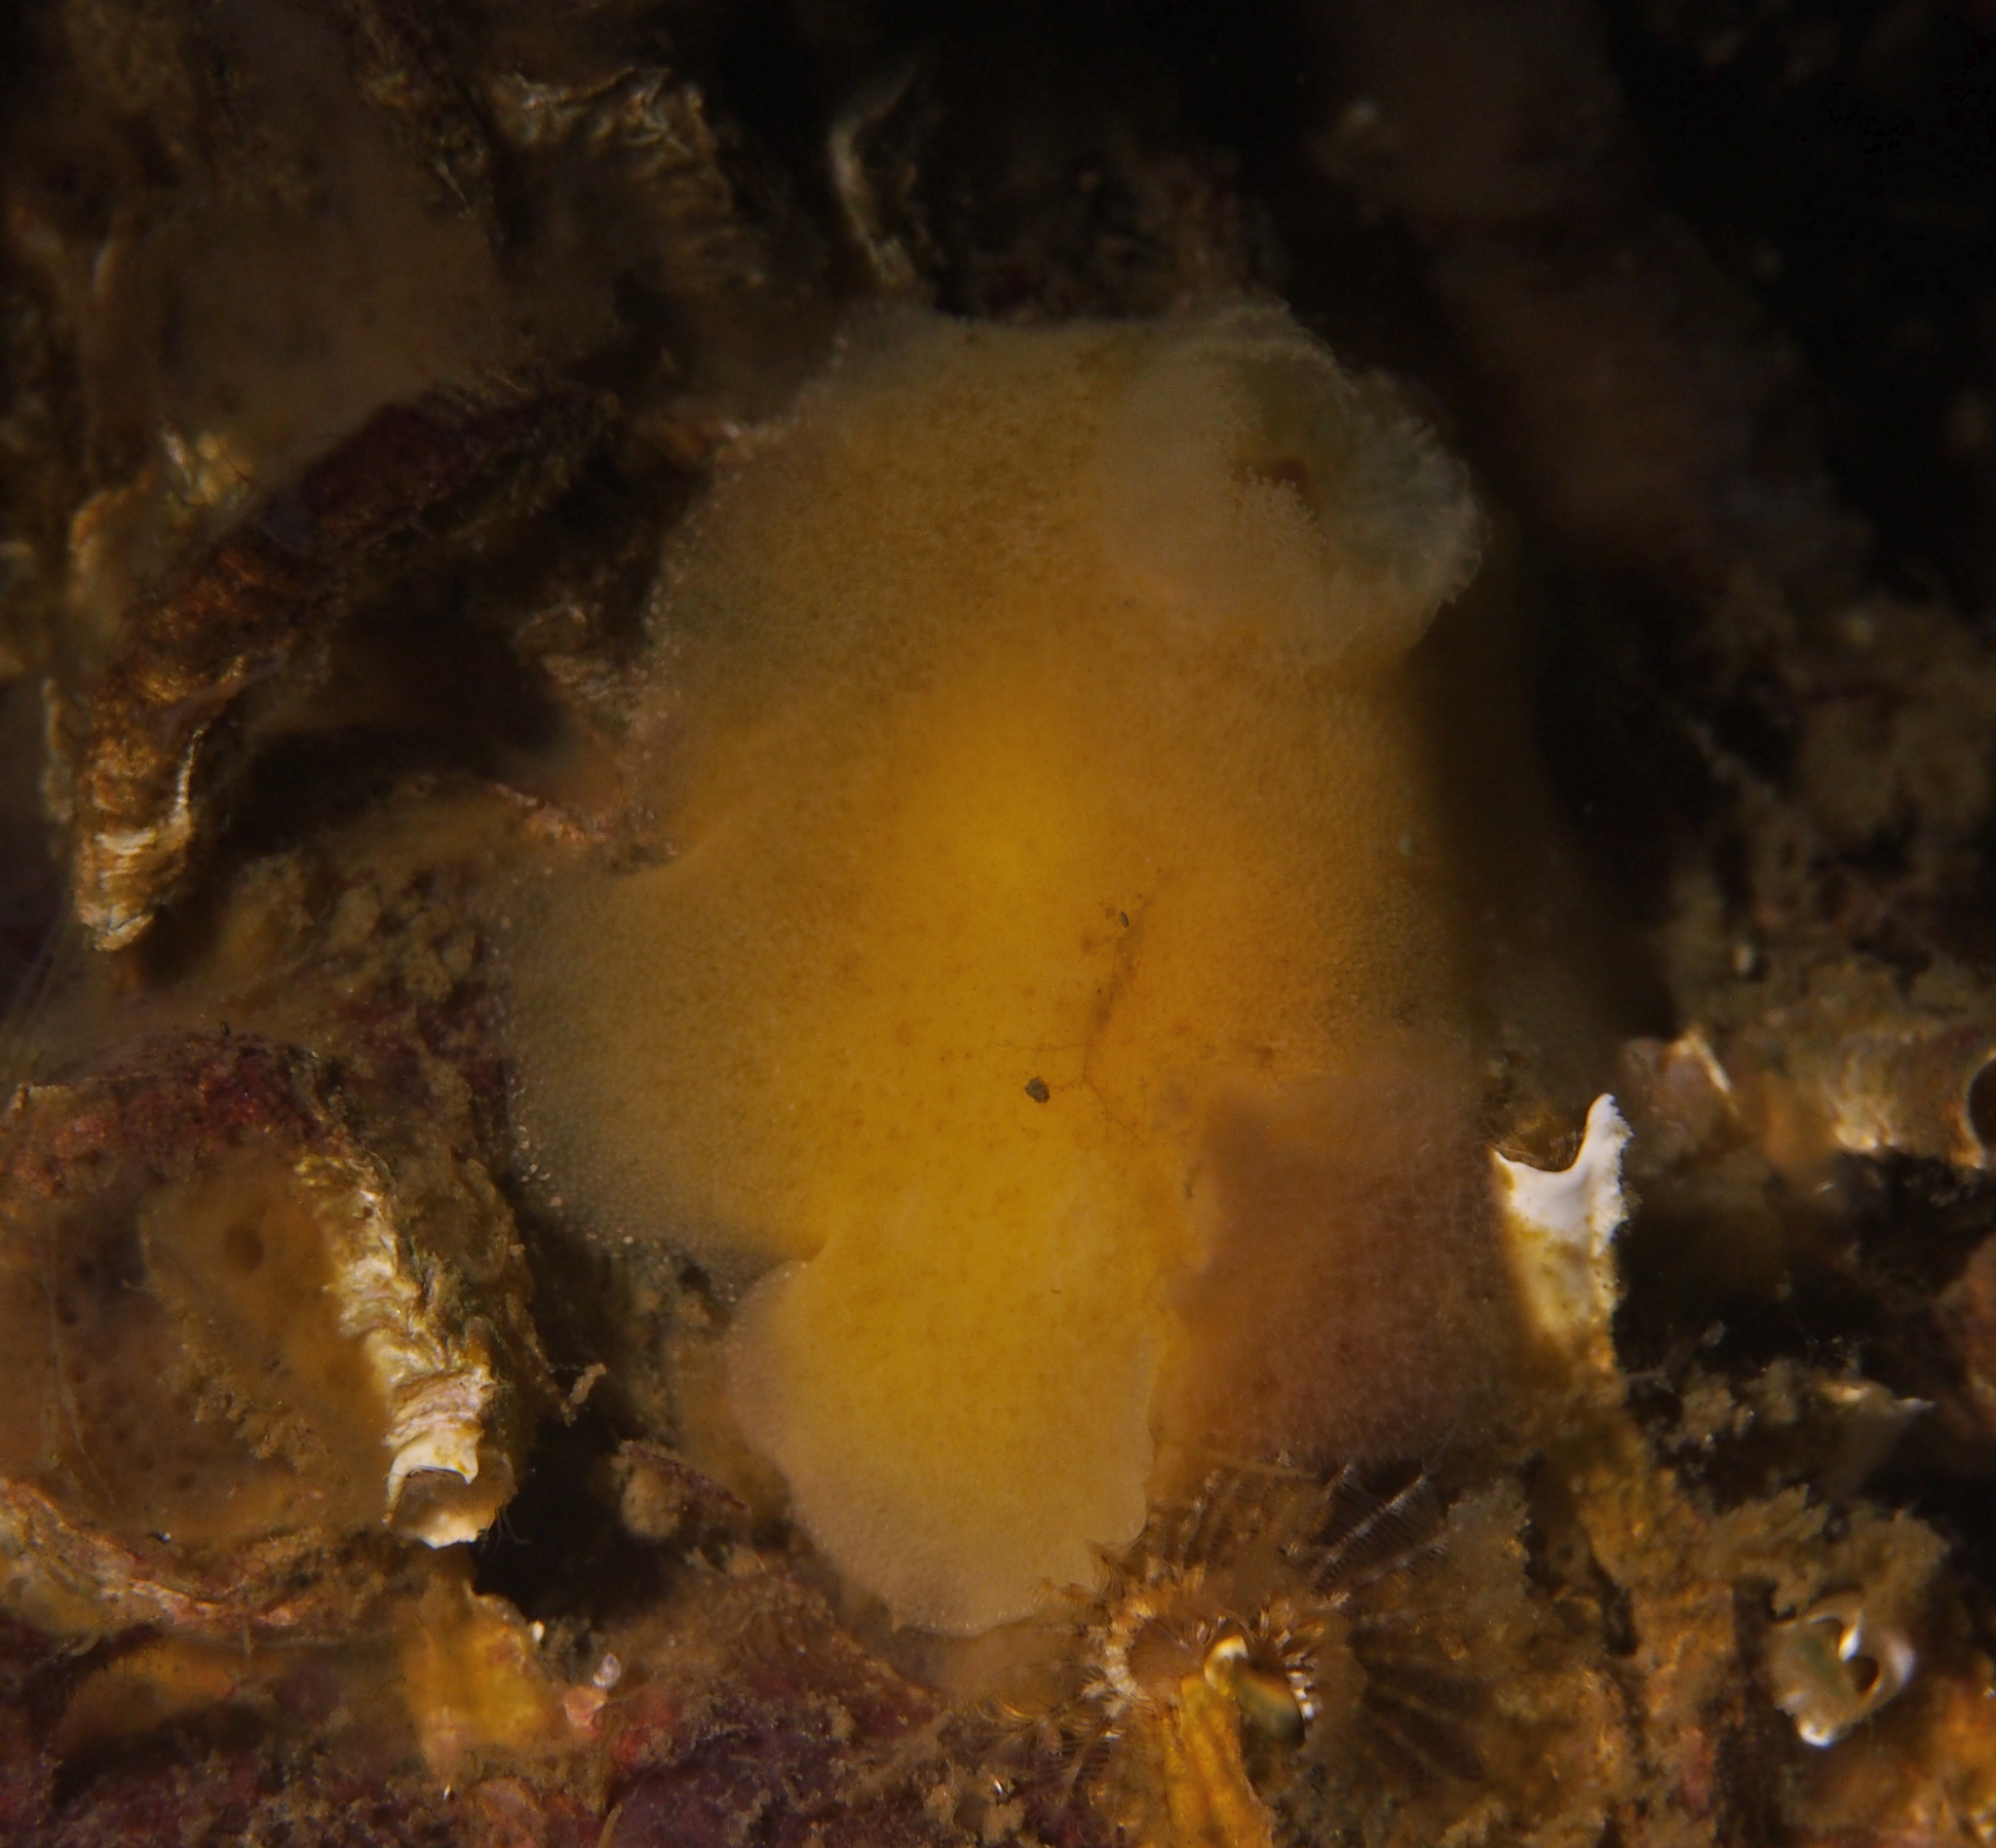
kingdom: Animalia
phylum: Mollusca
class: Gastropoda
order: Nudibranchia
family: Discodorididae
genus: Jorunna
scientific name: Jorunna tomentosa
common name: Grey sea slug
